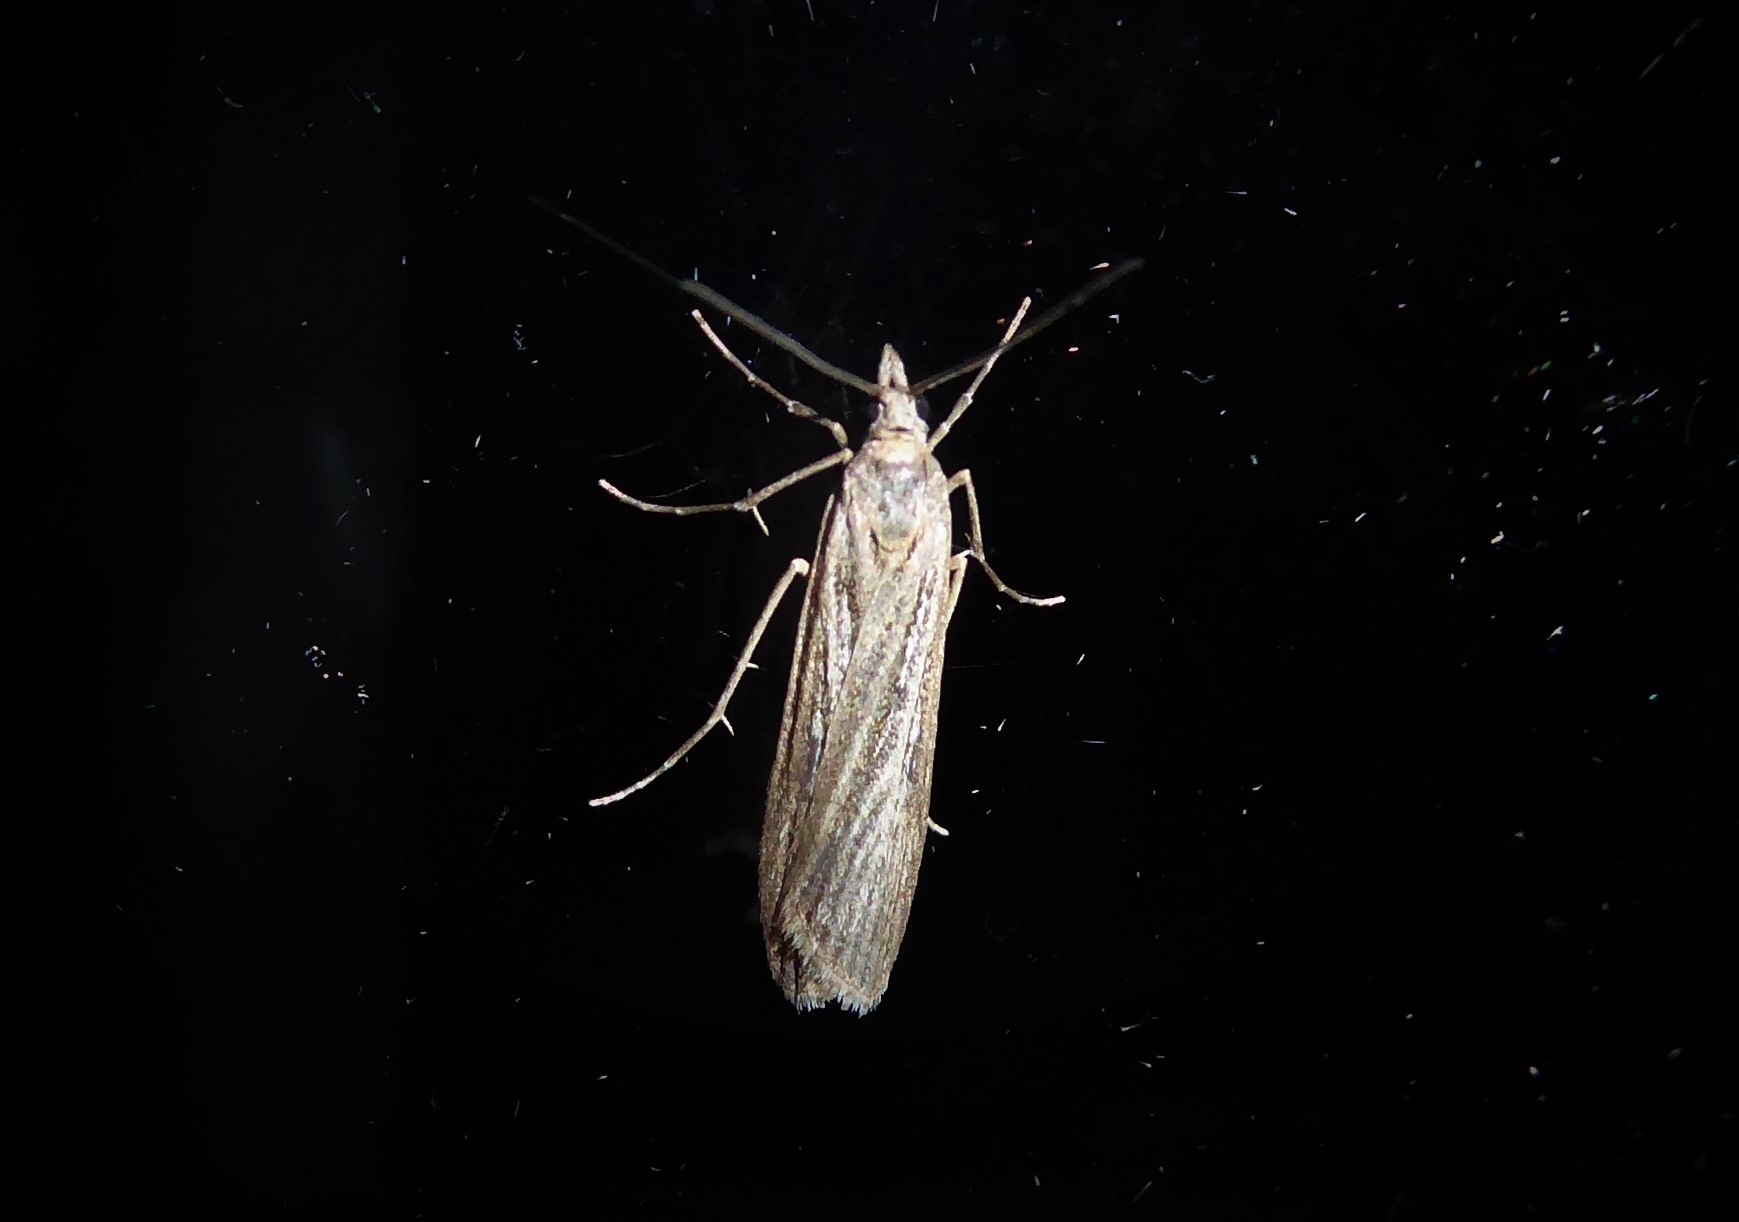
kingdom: Animalia
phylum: Arthropoda
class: Insecta
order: Lepidoptera
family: Crambidae
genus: Eudonia
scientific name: Eudonia leptalea
